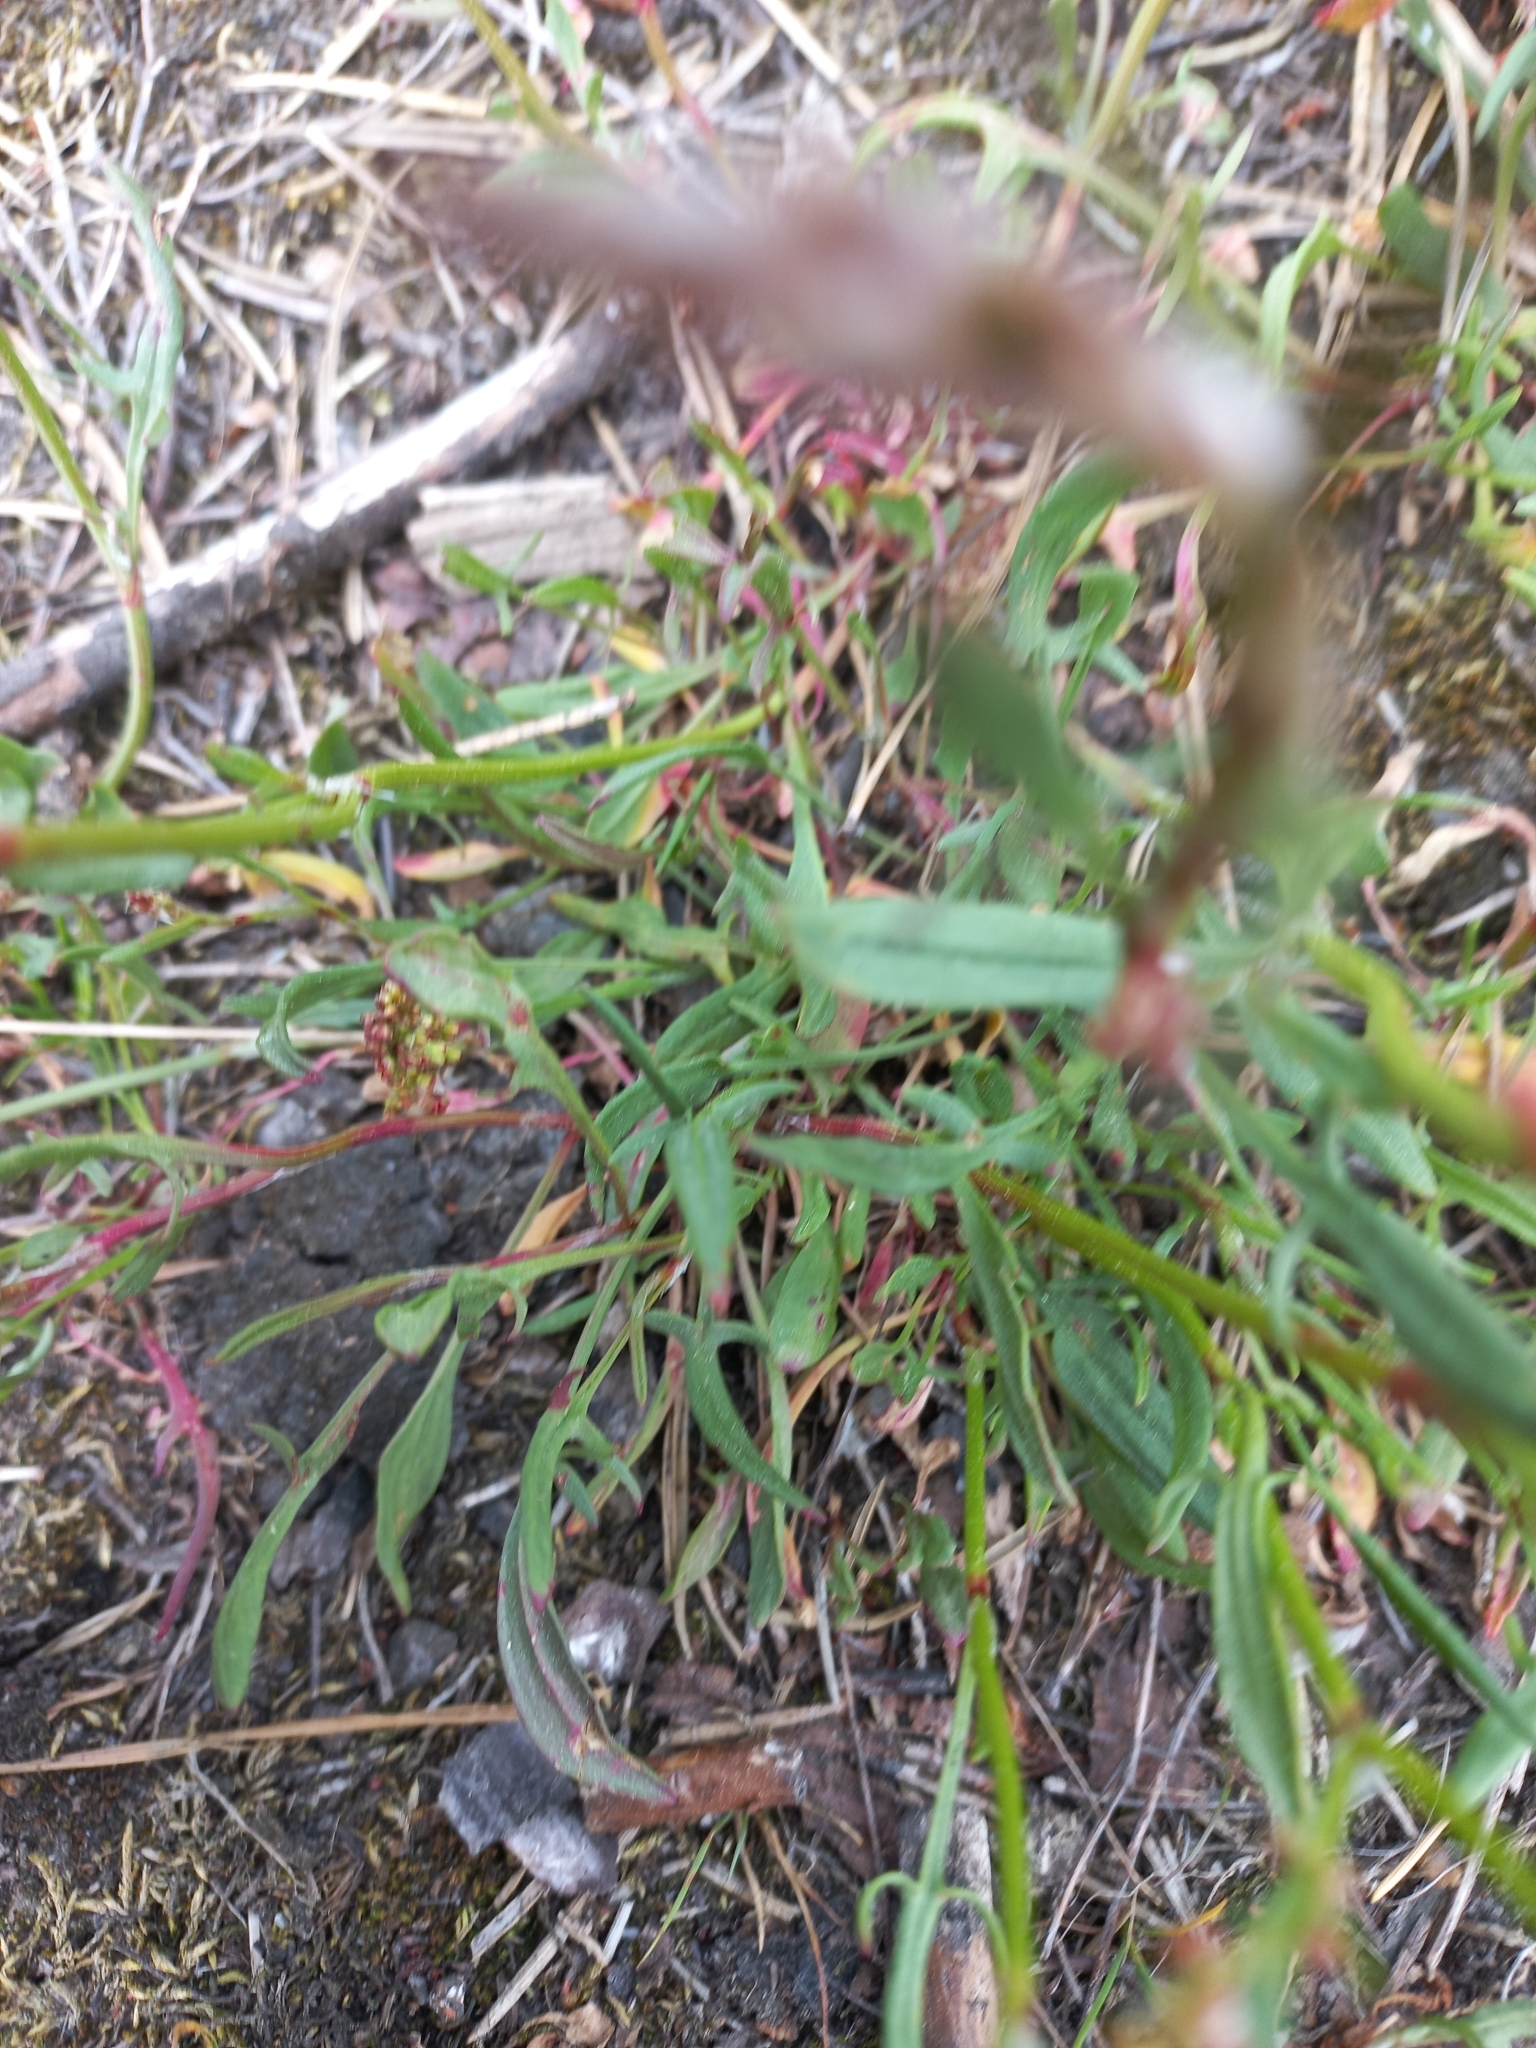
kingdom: Plantae
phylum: Tracheophyta
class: Magnoliopsida
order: Caryophyllales
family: Polygonaceae
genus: Rumex
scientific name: Rumex acetosella
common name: Common sheep sorrel
